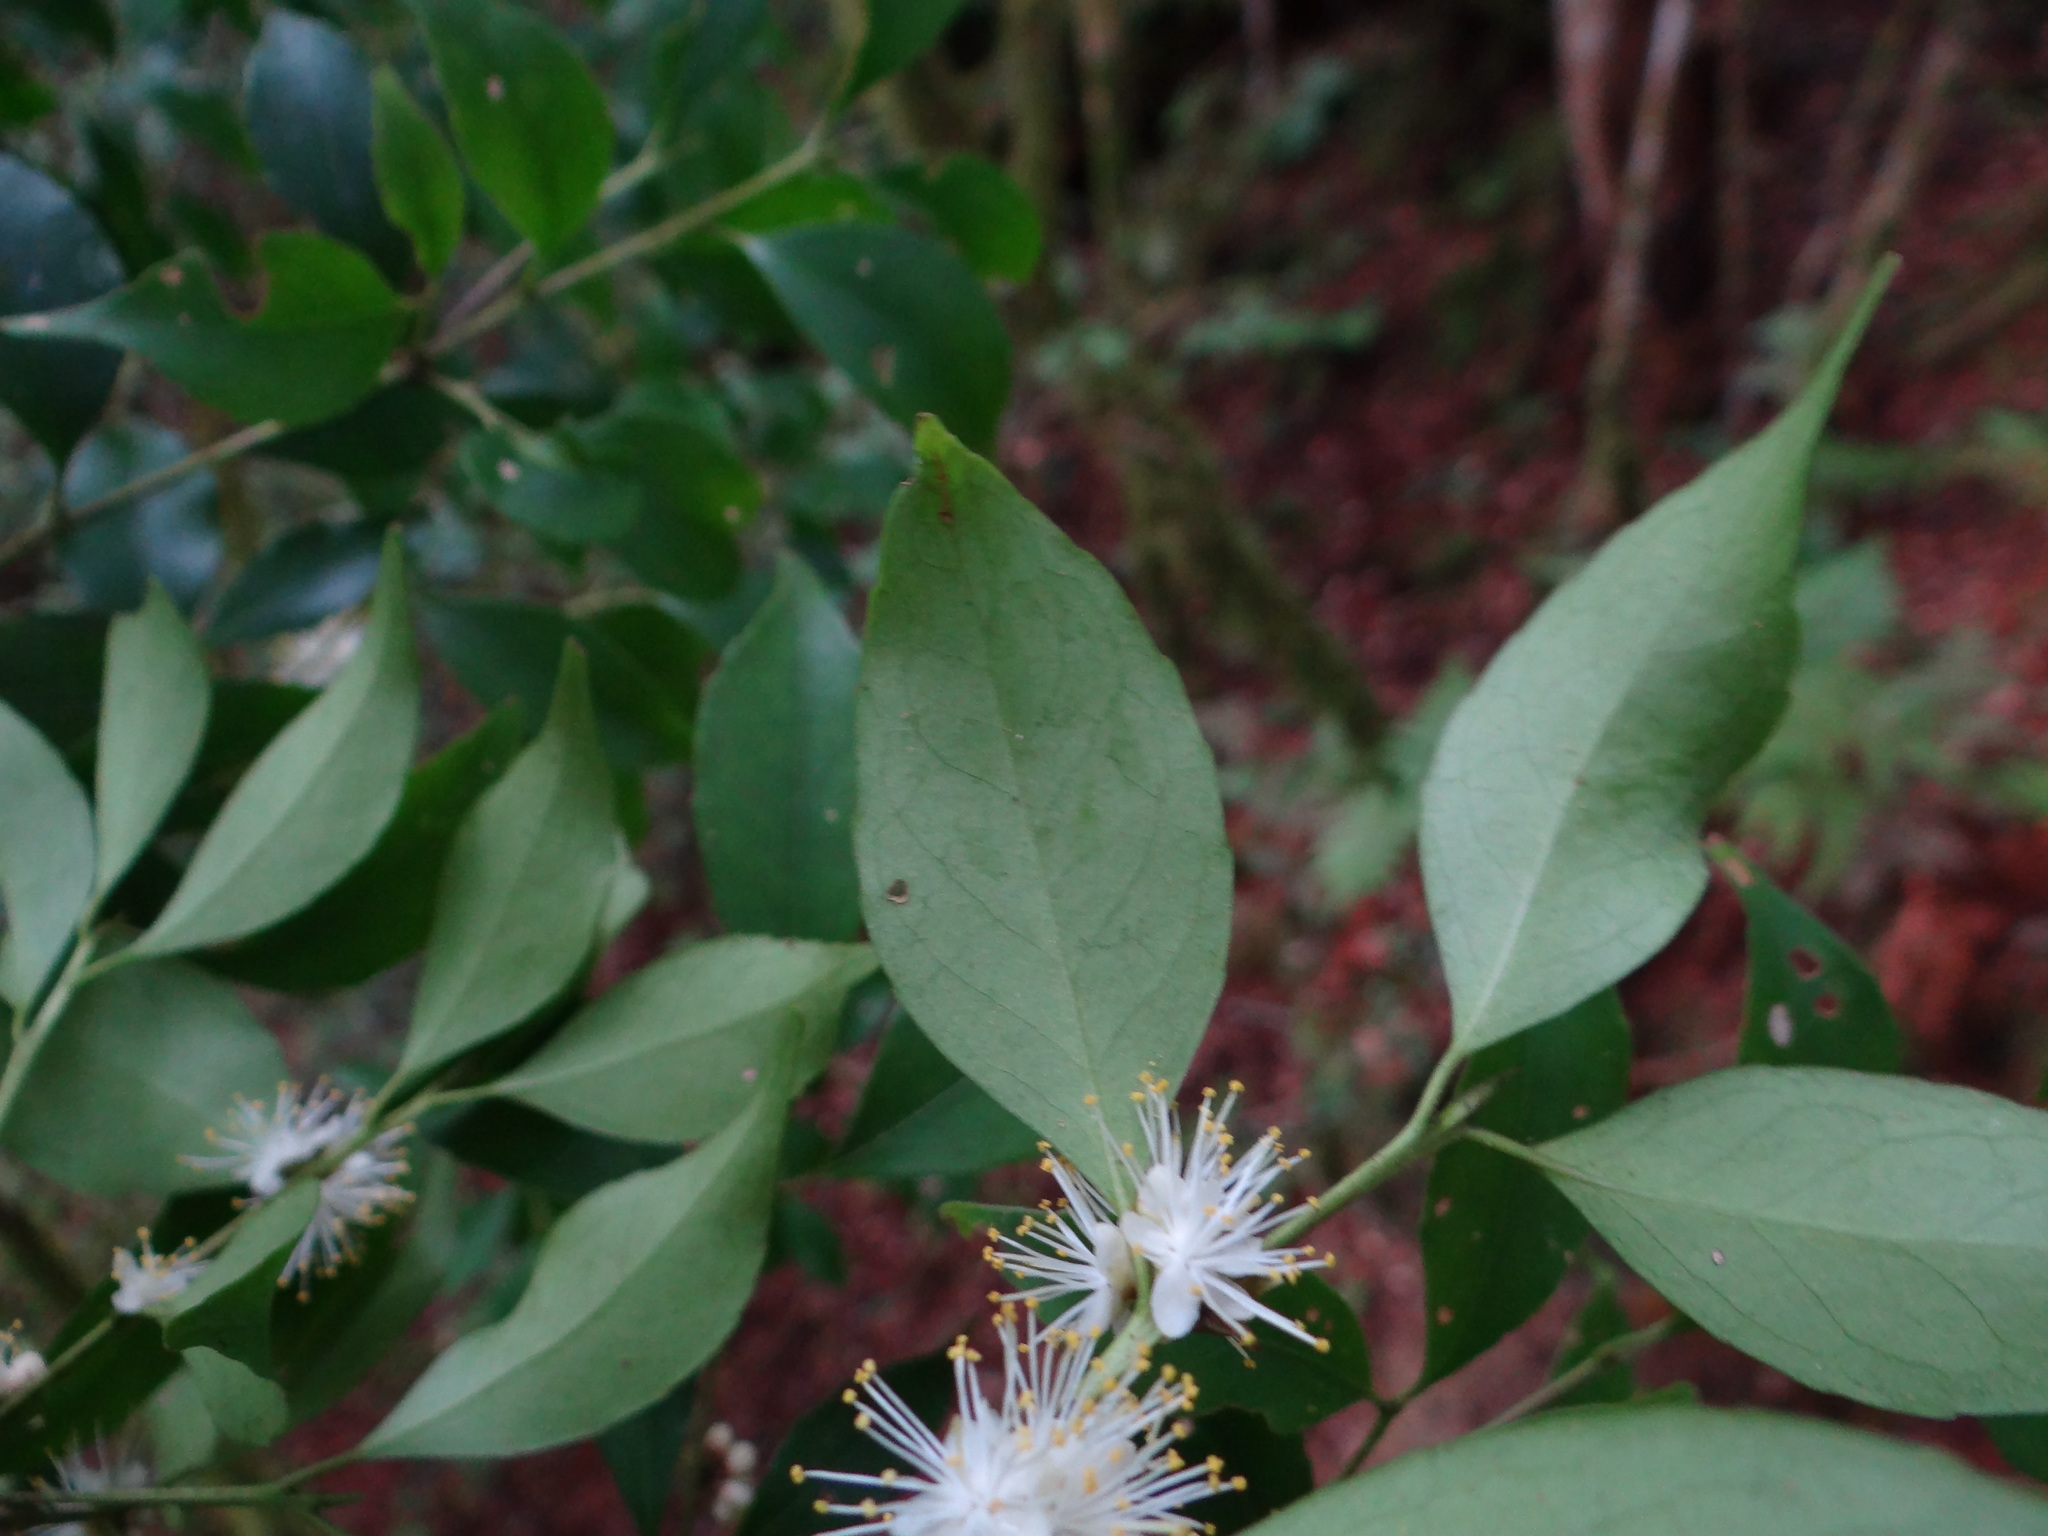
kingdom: Plantae
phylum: Tracheophyta
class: Magnoliopsida
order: Ericales
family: Symplocaceae
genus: Symplocos
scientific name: Symplocos sumuntia
